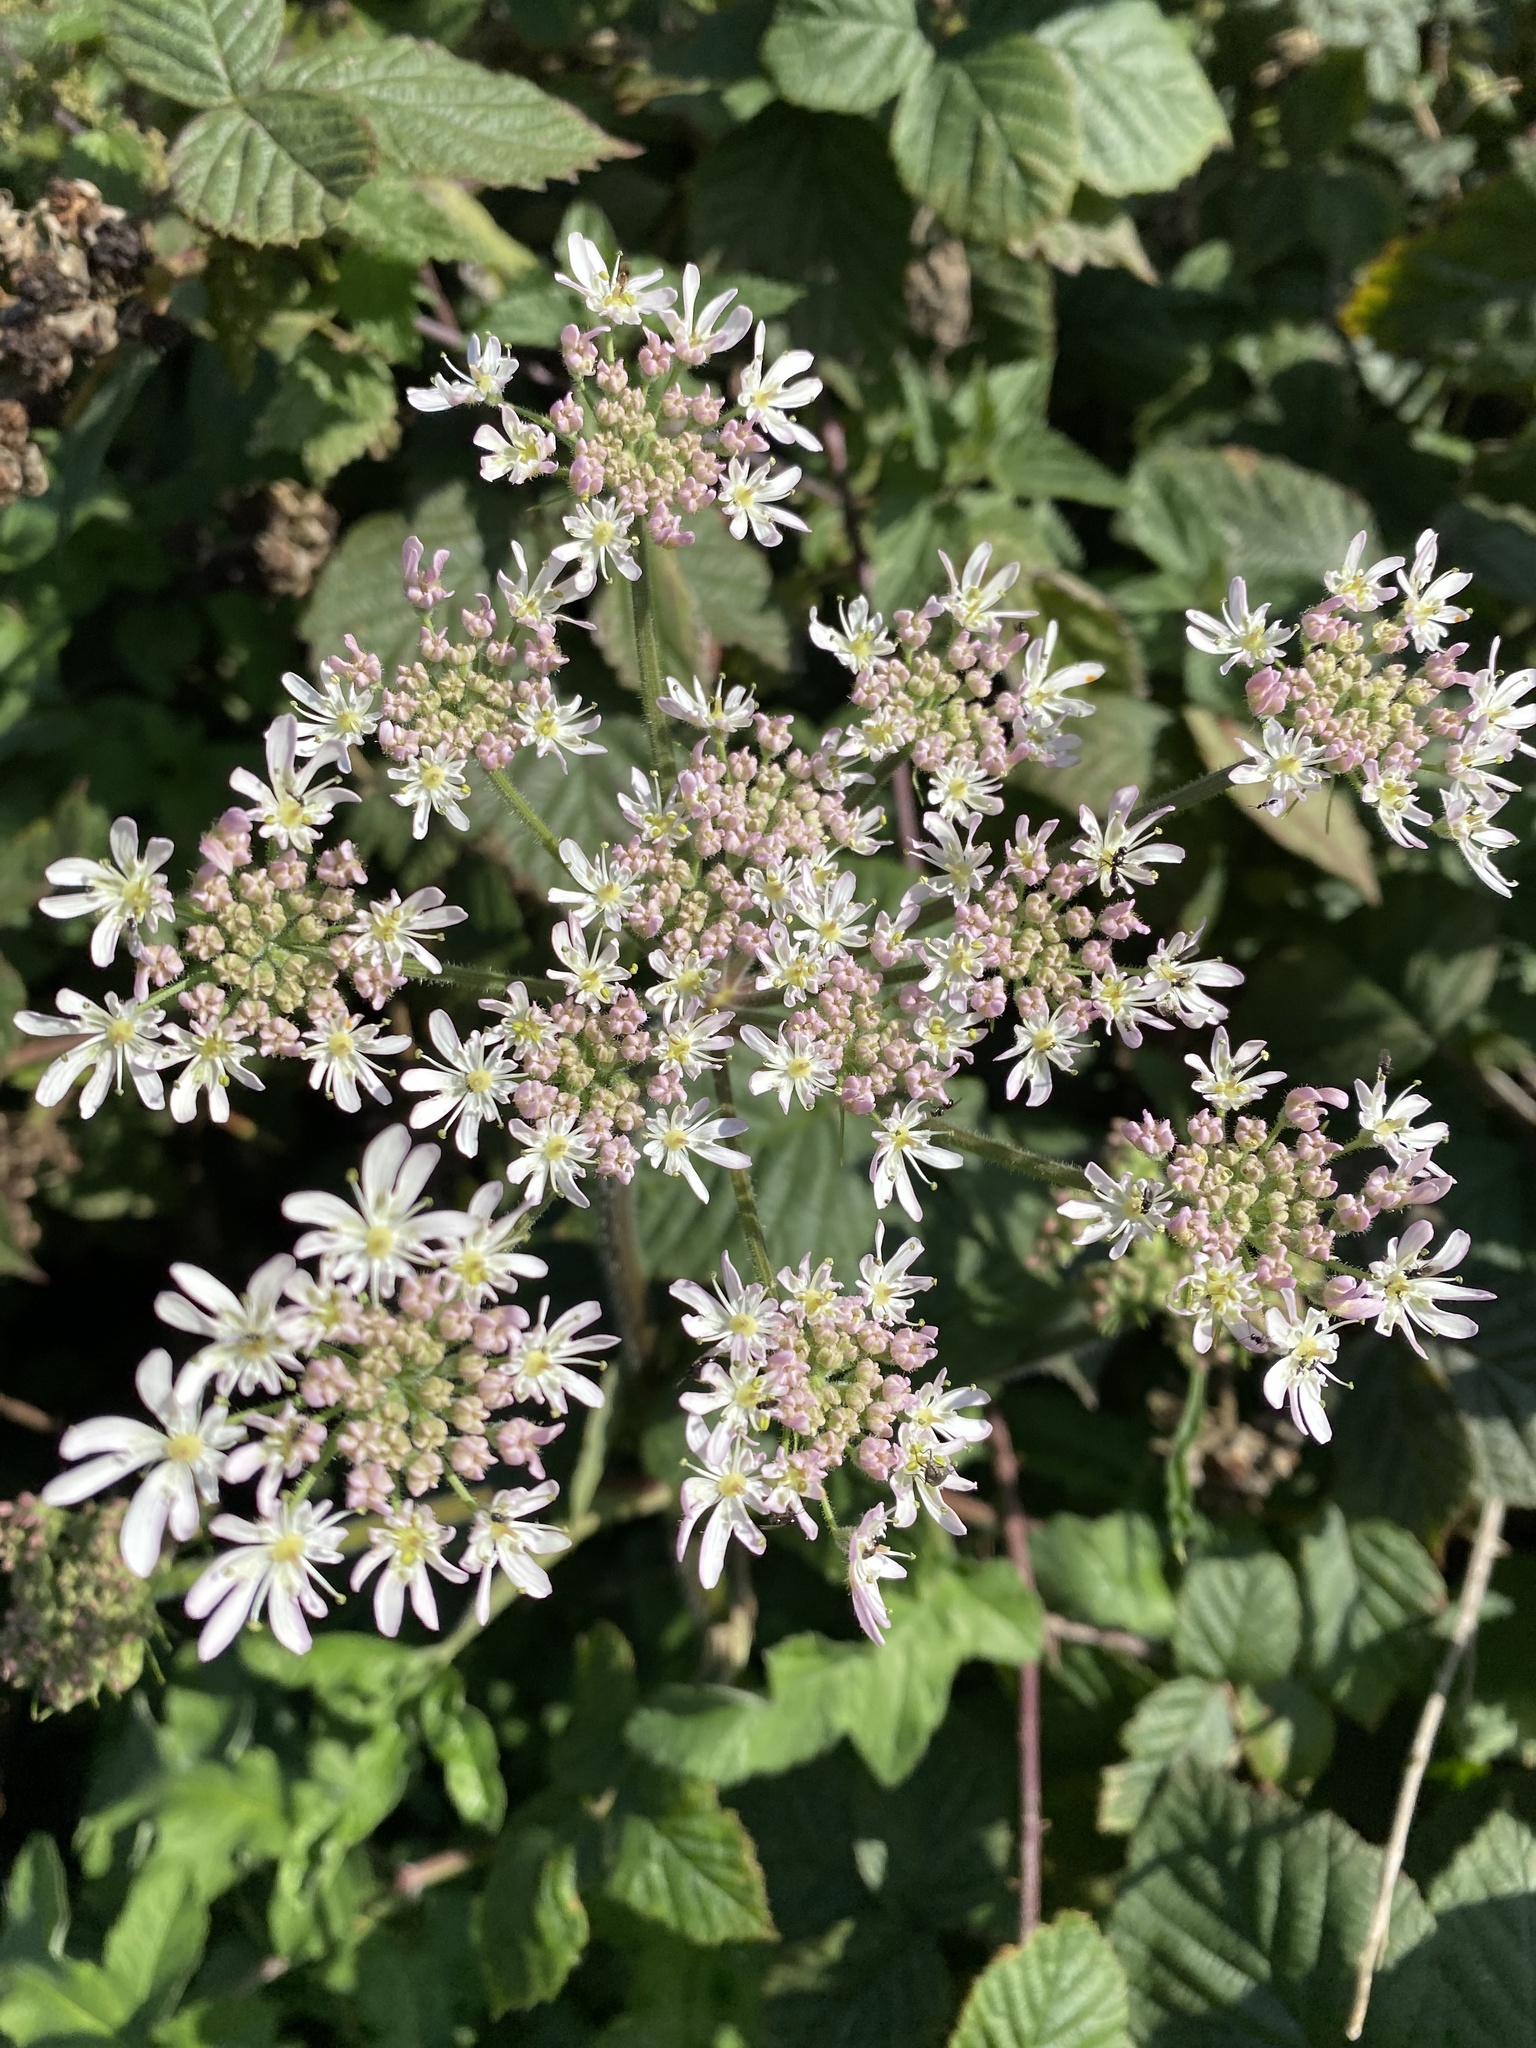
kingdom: Plantae
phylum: Tracheophyta
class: Magnoliopsida
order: Apiales
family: Apiaceae
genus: Heracleum
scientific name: Heracleum sphondylium
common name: Hogweed
